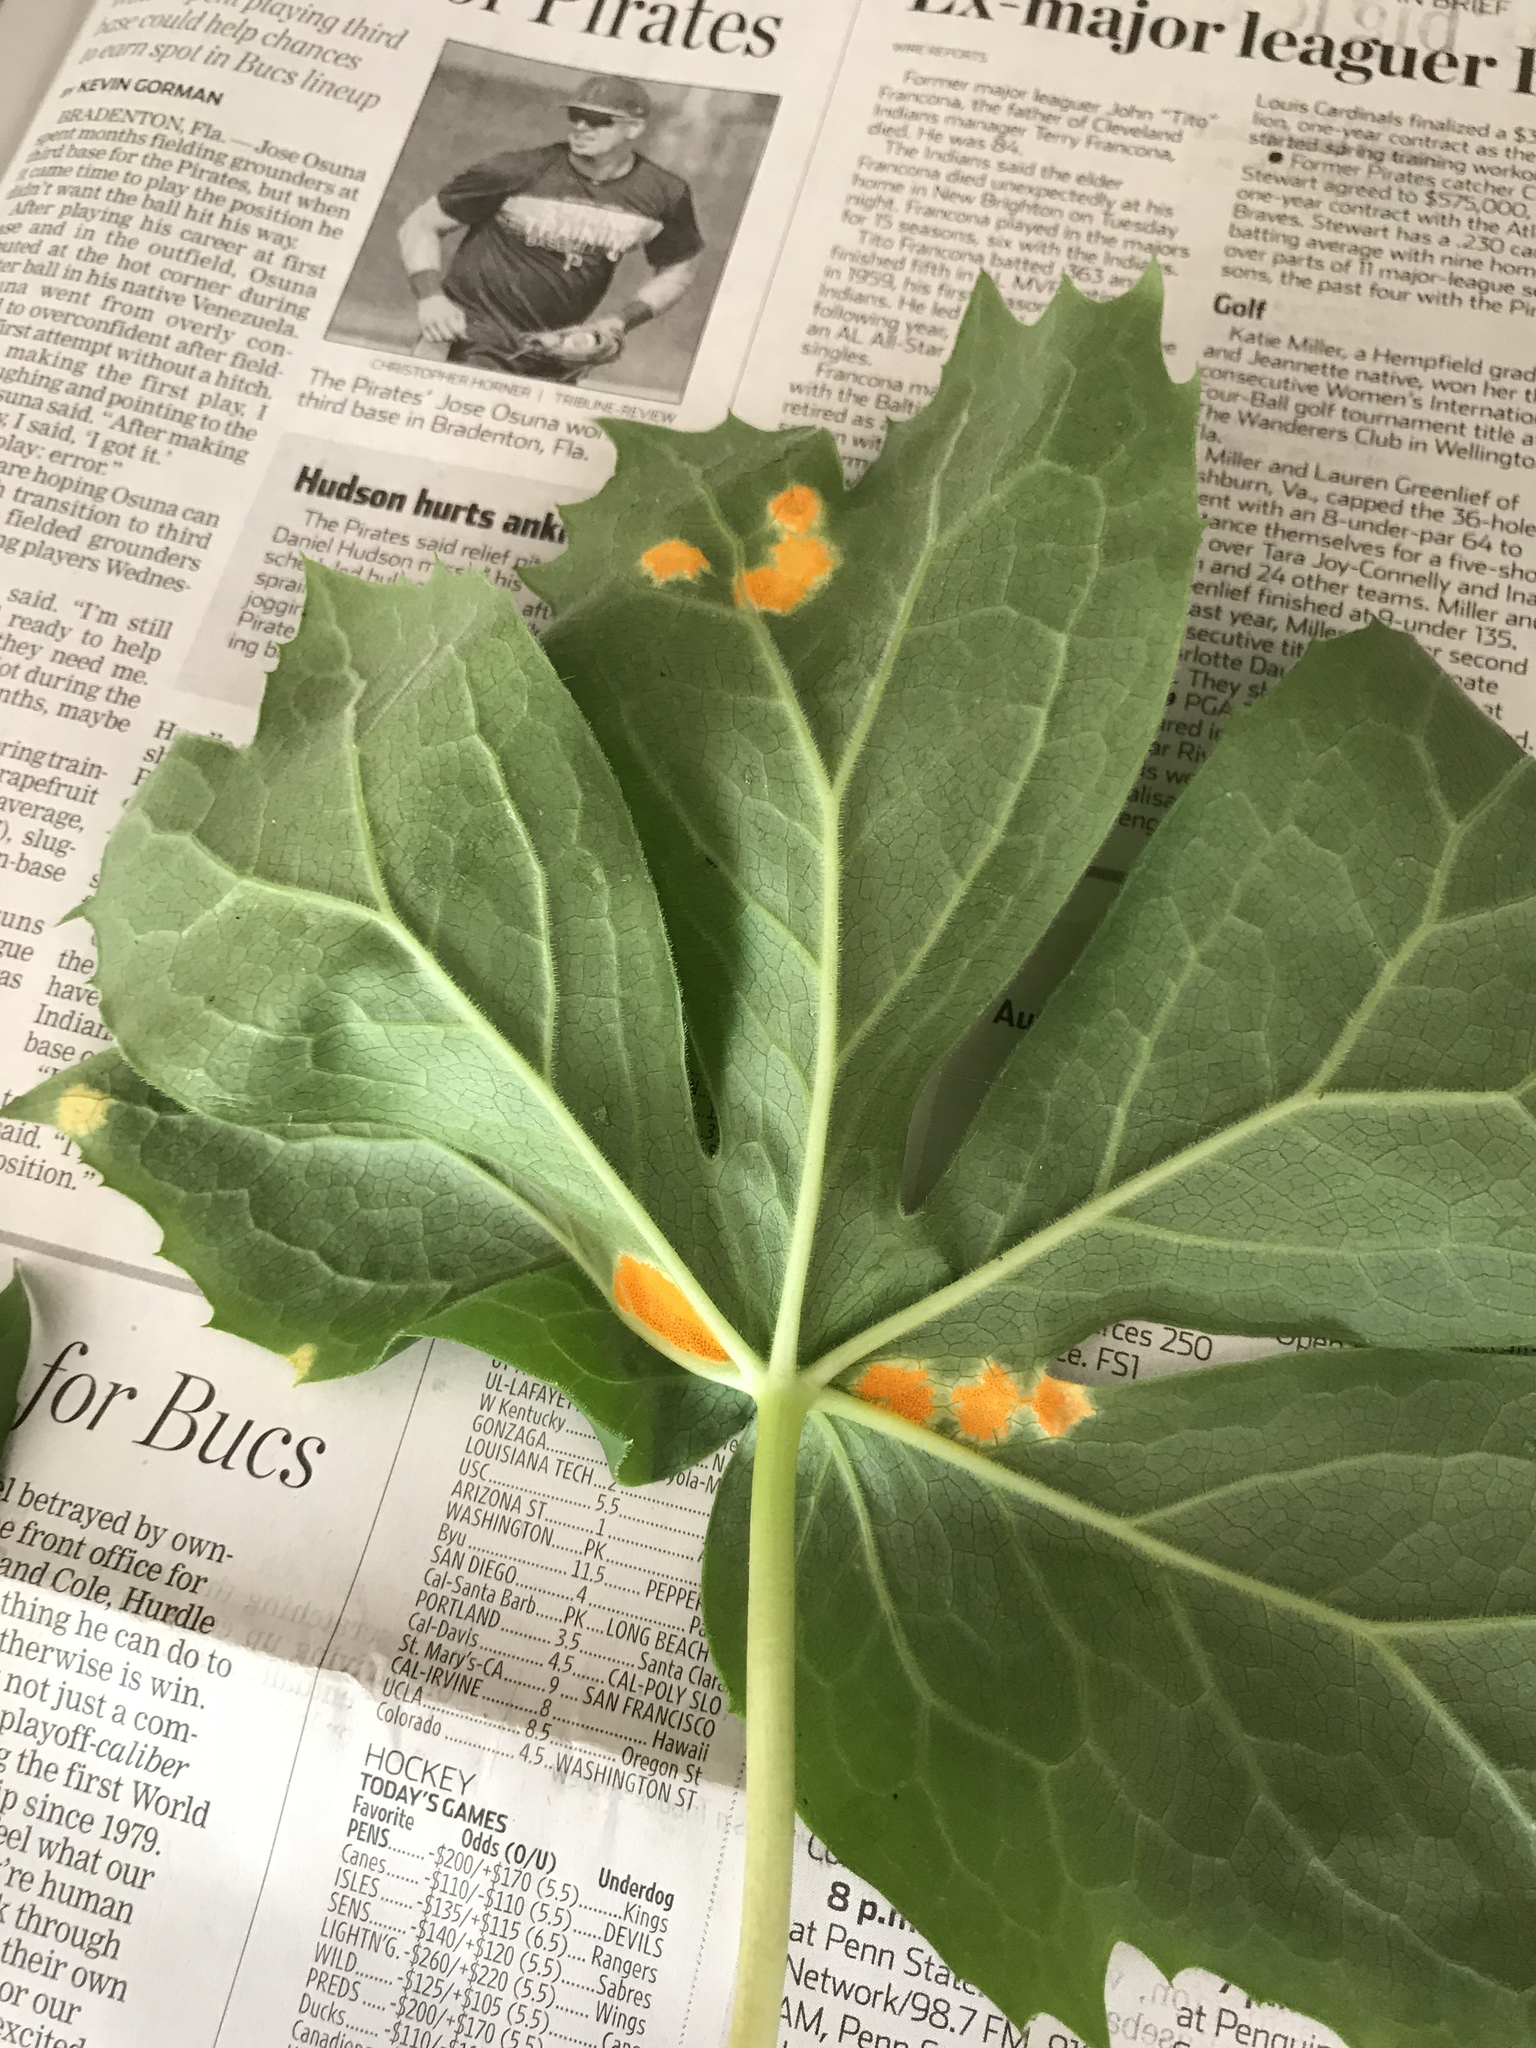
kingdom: Fungi
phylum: Basidiomycota
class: Pucciniomycetes
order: Pucciniales
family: Pucciniaceae
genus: Puccinia
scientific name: Puccinia podophylli
